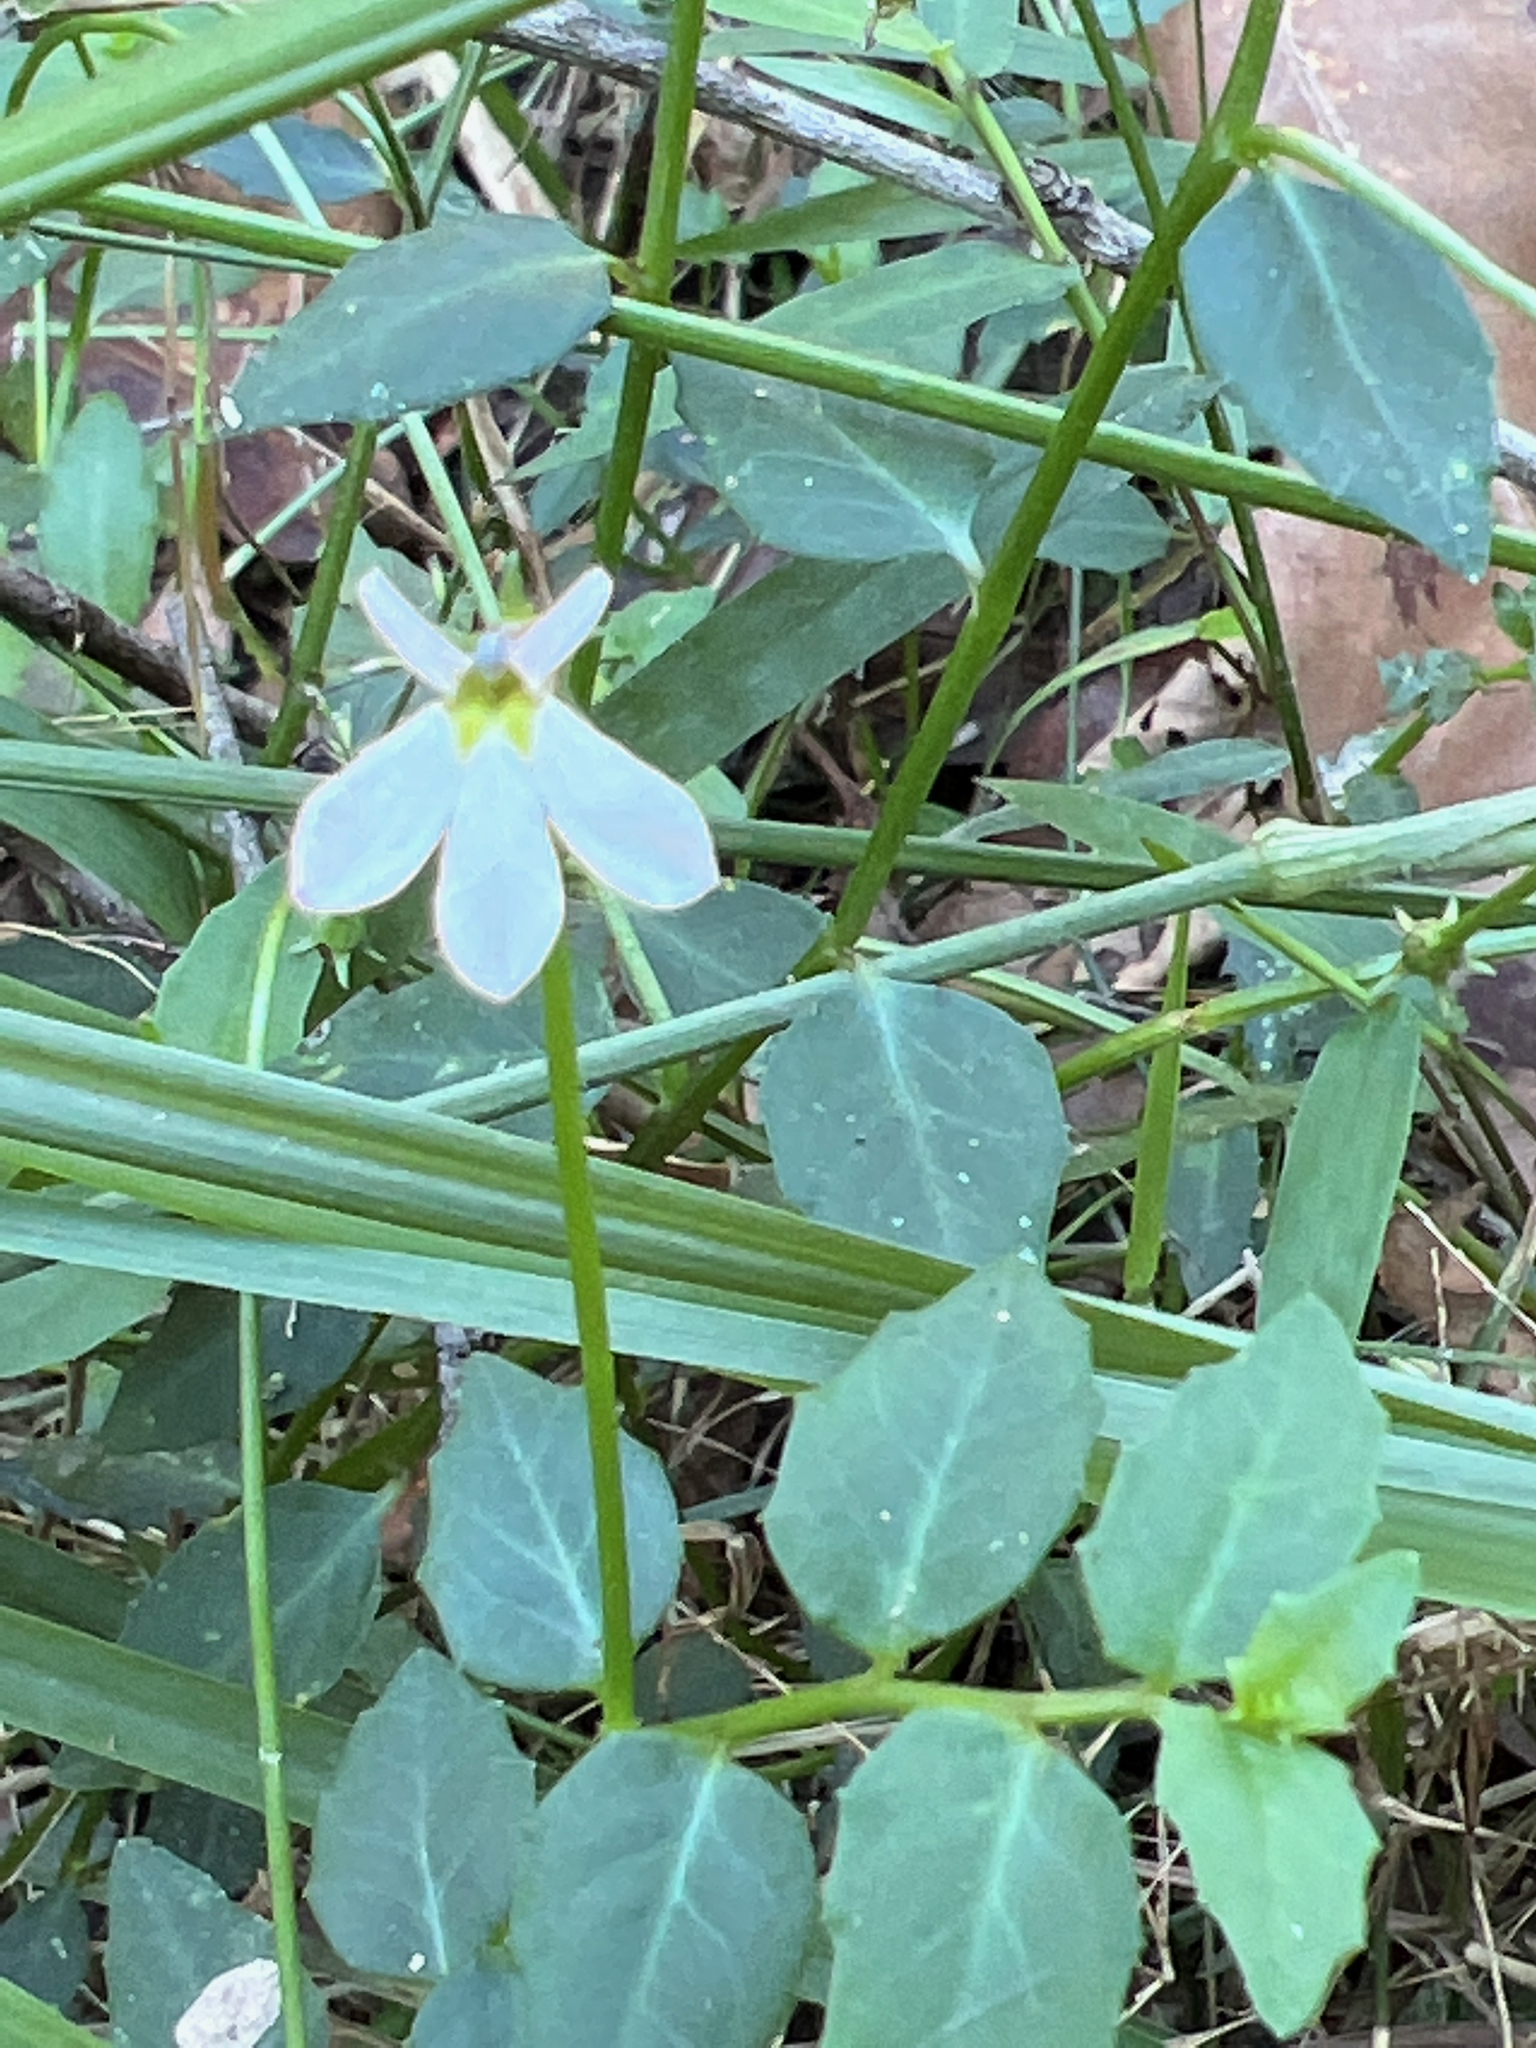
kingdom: Plantae
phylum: Tracheophyta
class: Magnoliopsida
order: Asterales
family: Campanulaceae
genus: Lobelia
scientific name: Lobelia purpurascens
